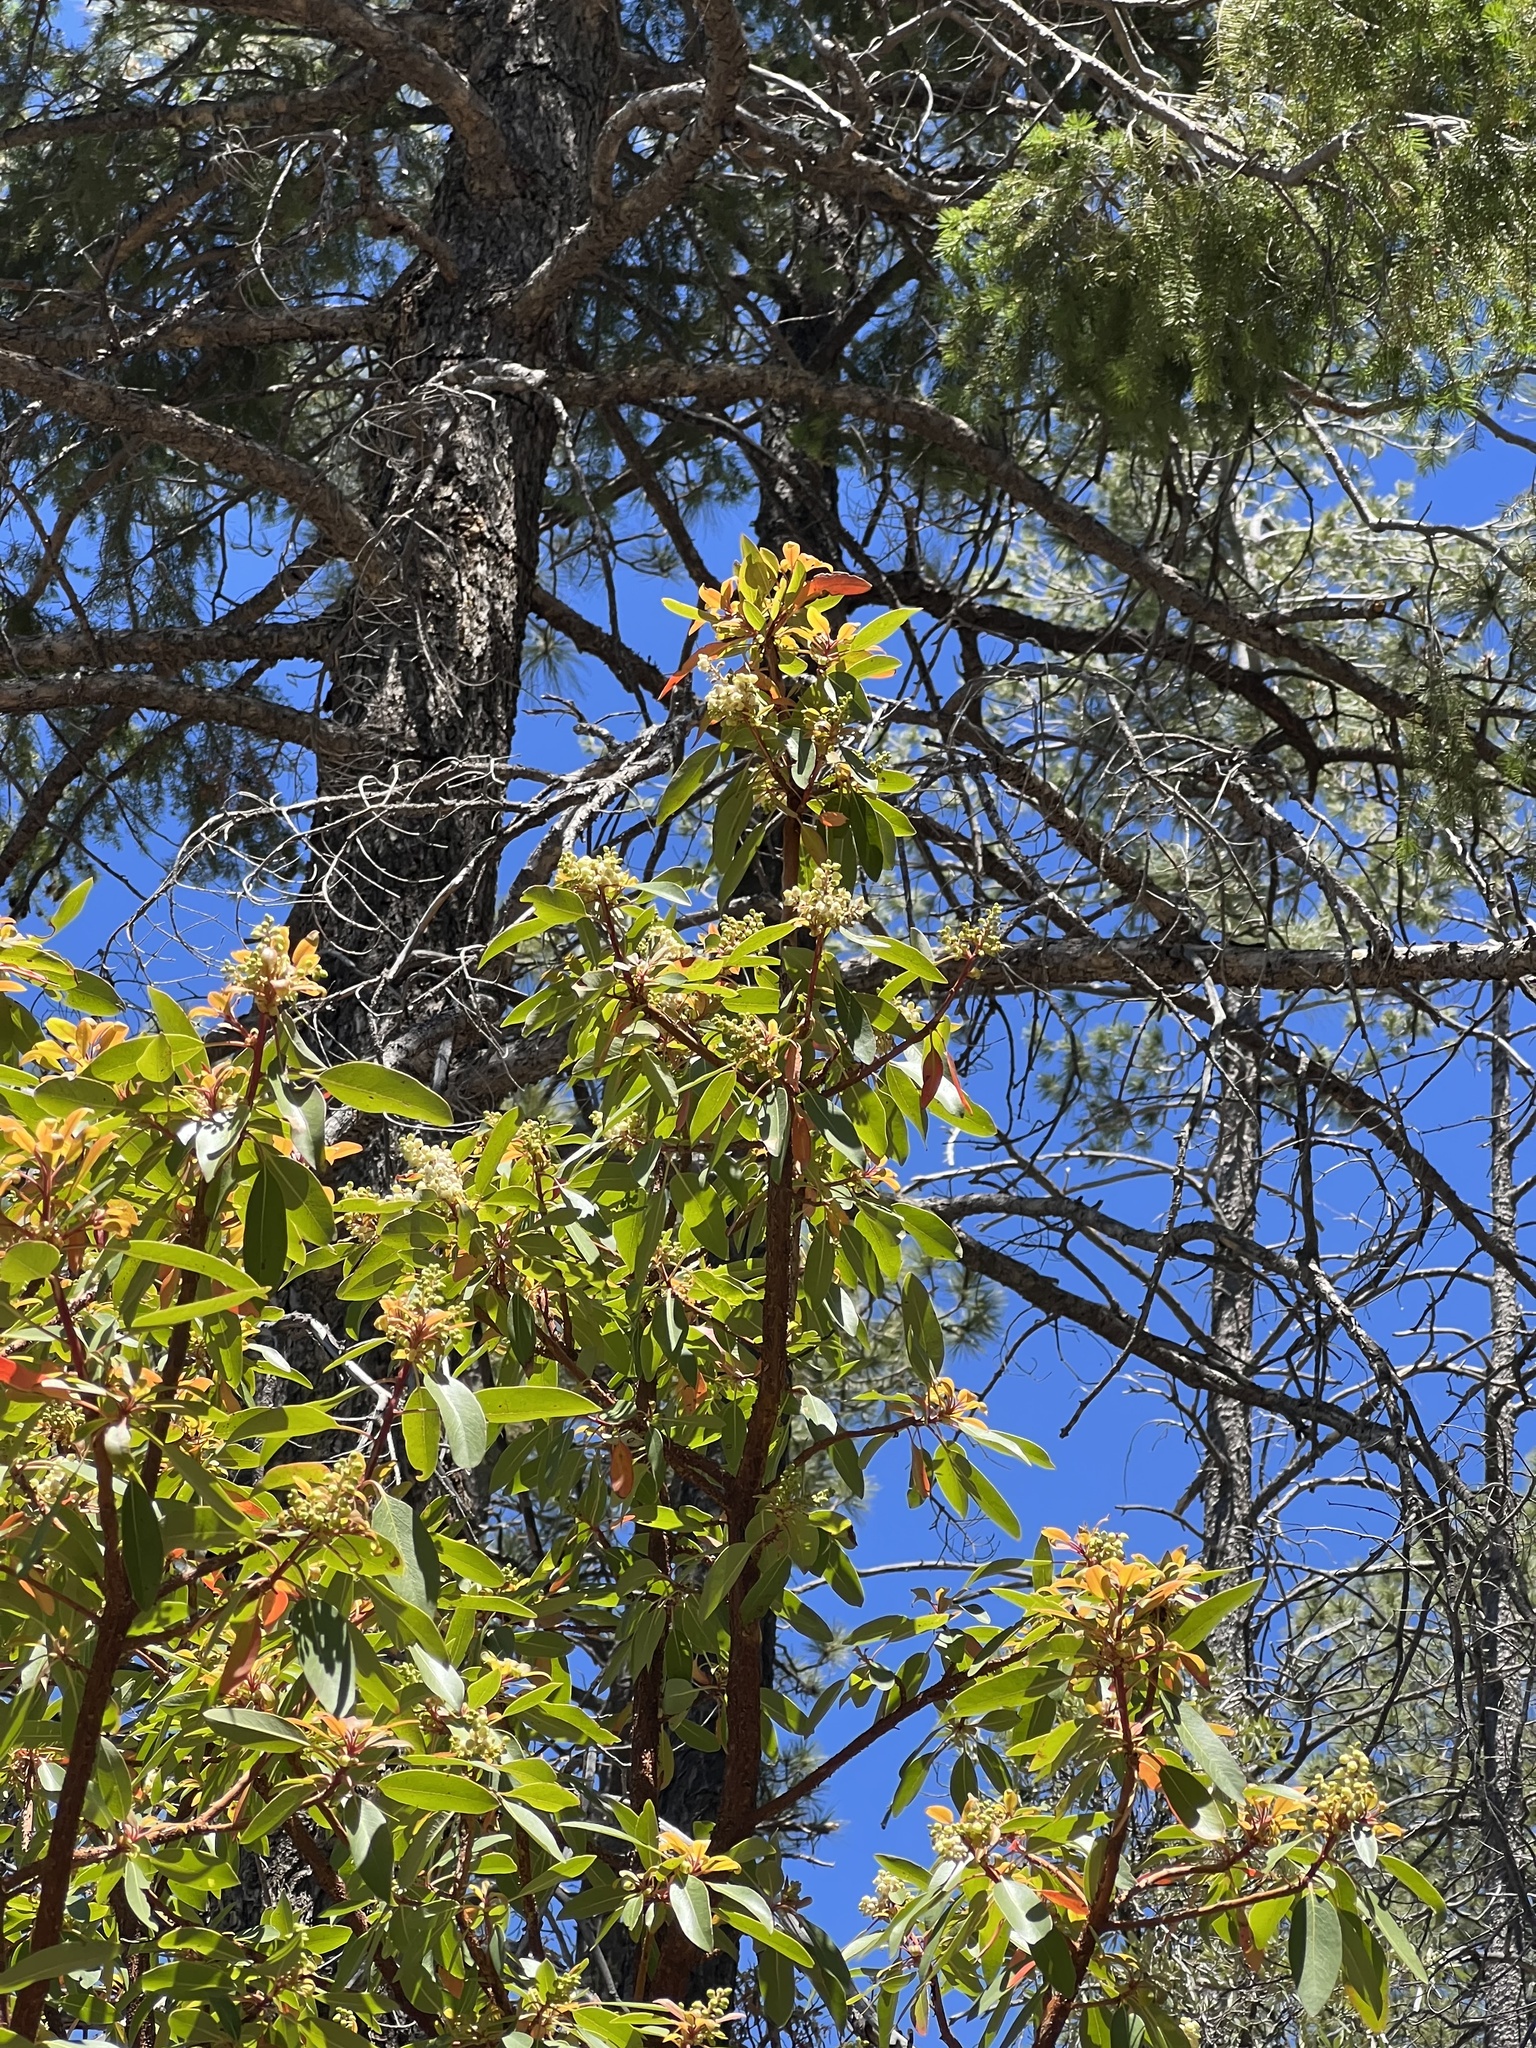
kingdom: Plantae
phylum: Tracheophyta
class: Magnoliopsida
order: Ericales
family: Ericaceae
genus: Arbutus
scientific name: Arbutus arizonica
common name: Arizona madrone
